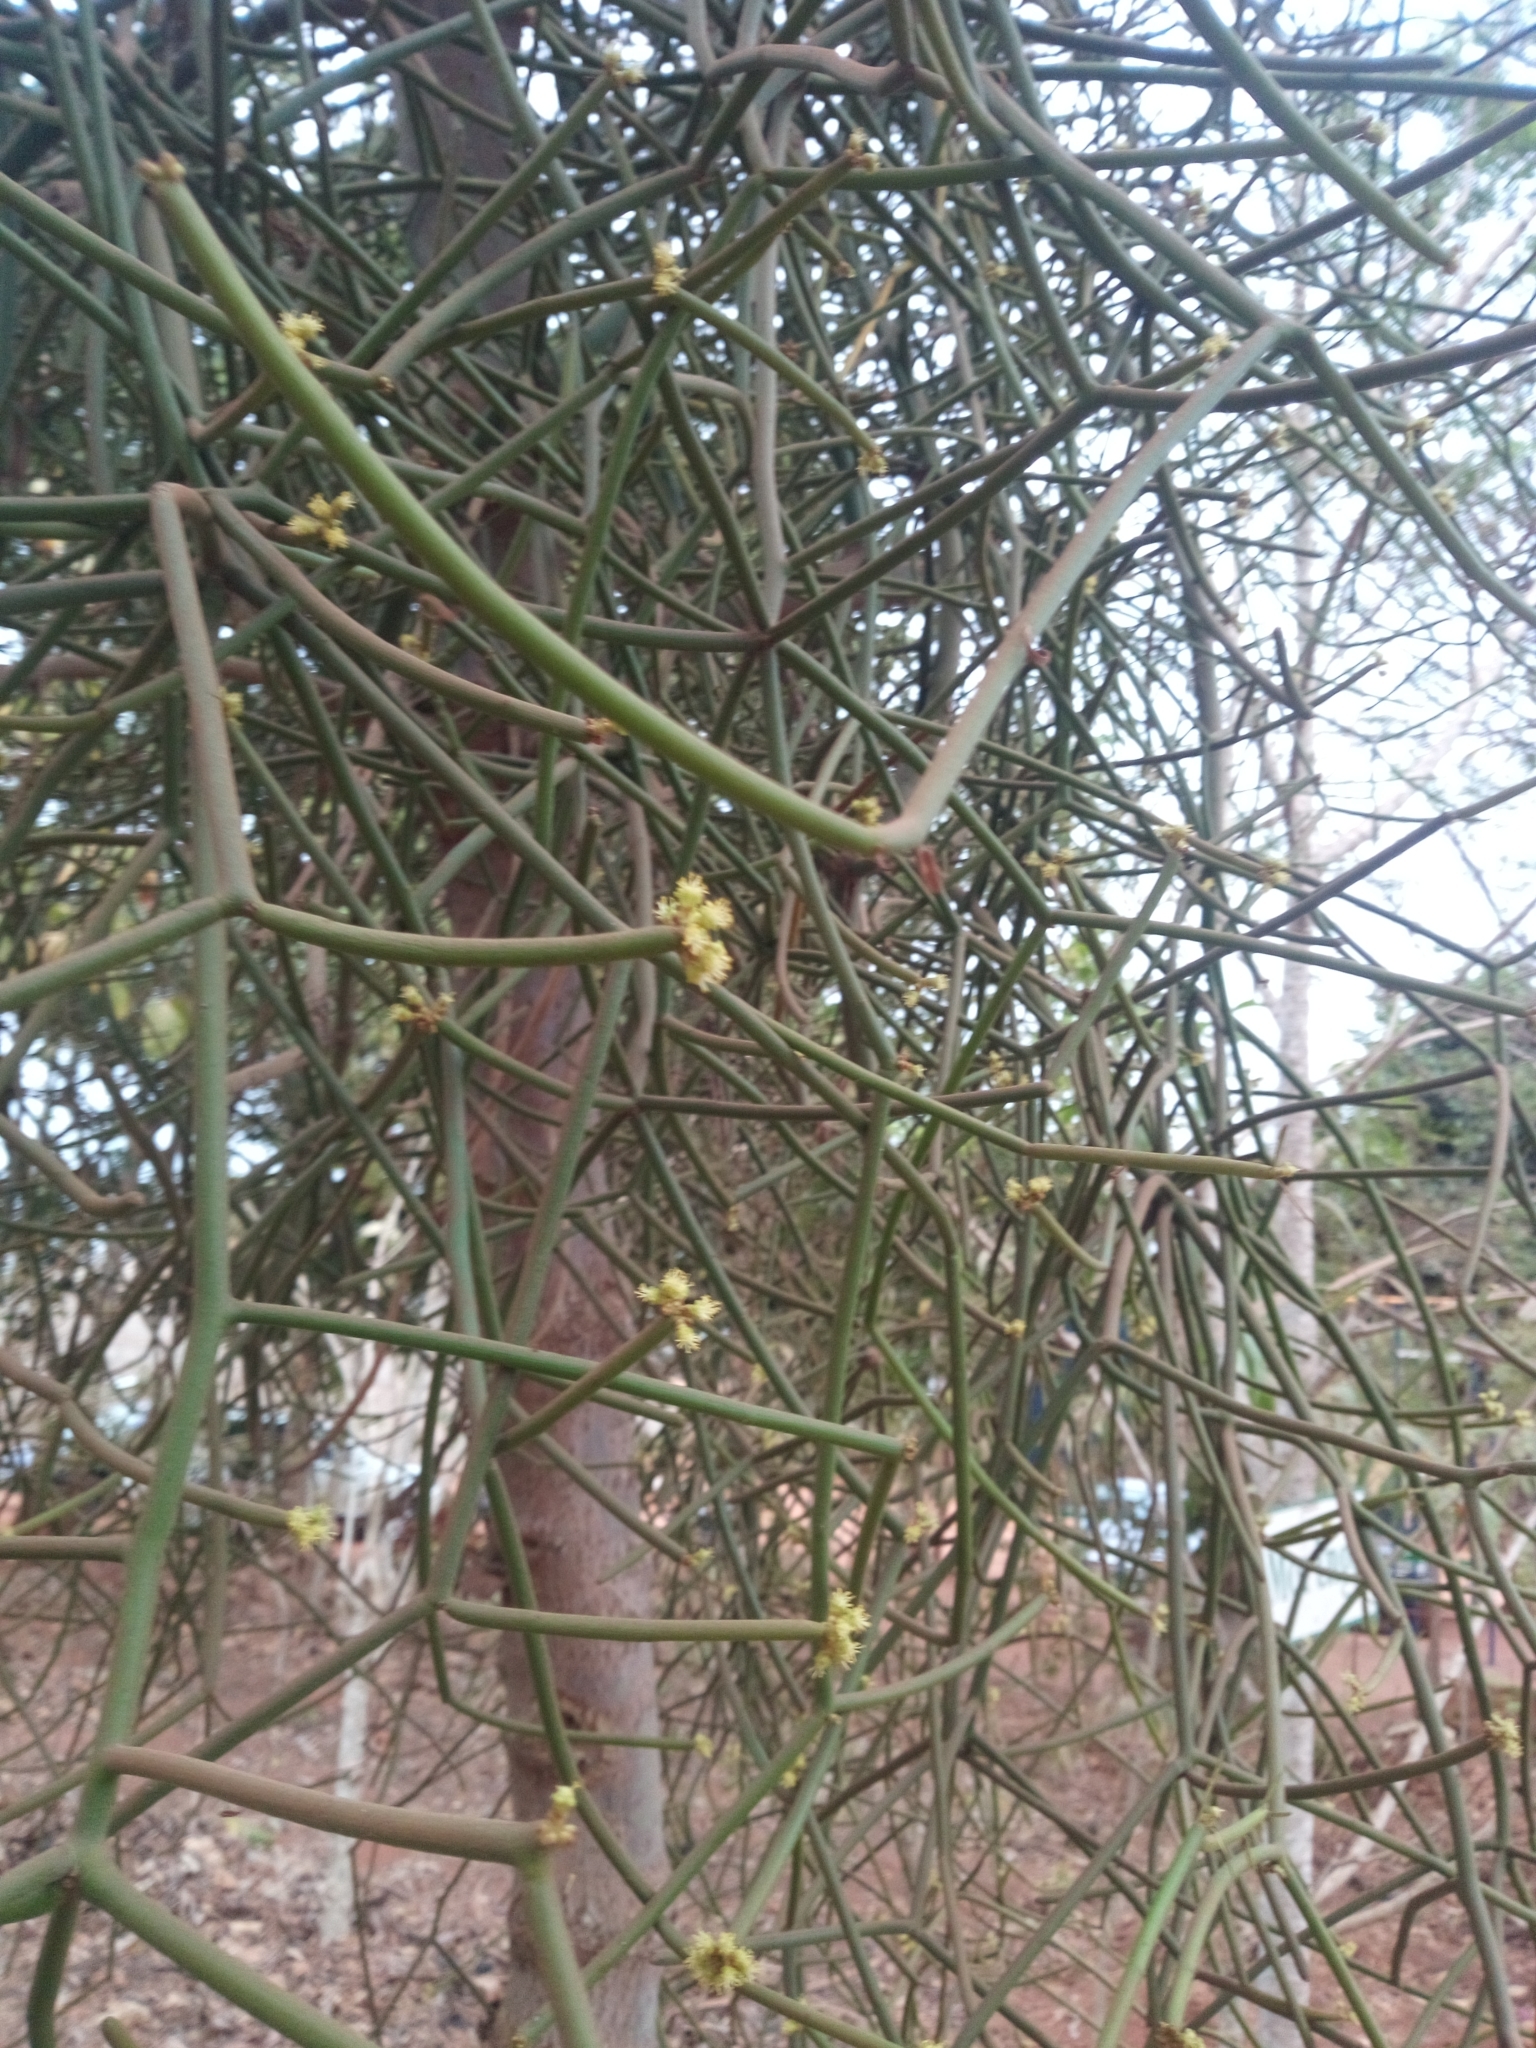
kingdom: Plantae
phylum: Tracheophyta
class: Magnoliopsida
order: Malpighiales
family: Euphorbiaceae
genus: Euphorbia
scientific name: Euphorbia tirucalli
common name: Indiantree spurge
